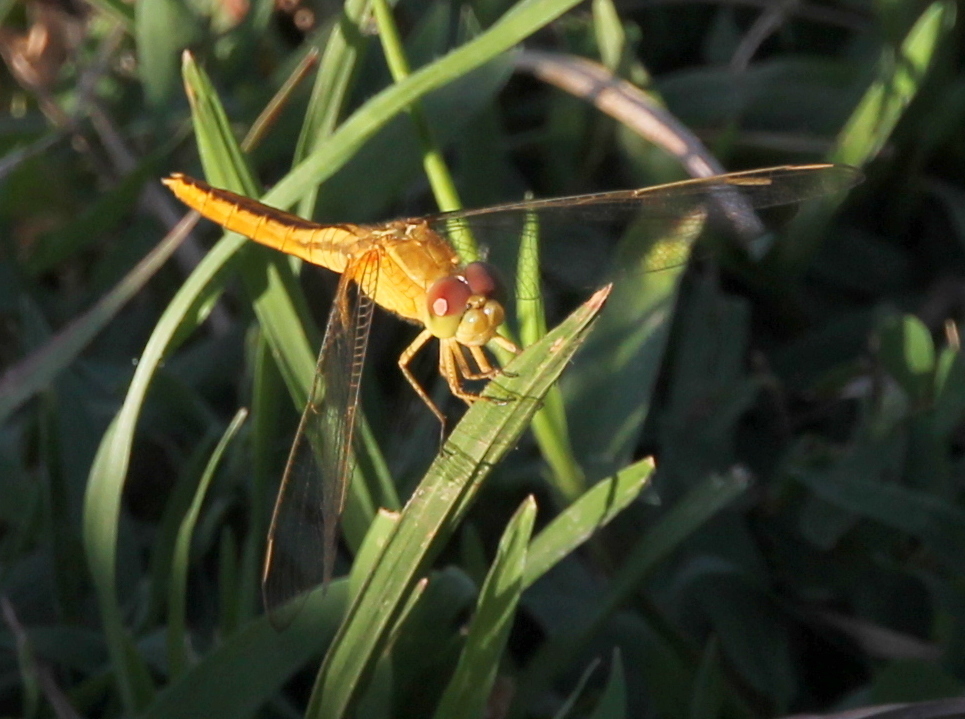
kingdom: Animalia
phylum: Arthropoda
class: Insecta
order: Odonata
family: Libellulidae
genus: Crocothemis
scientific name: Crocothemis servilia
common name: Scarlet skimmer
